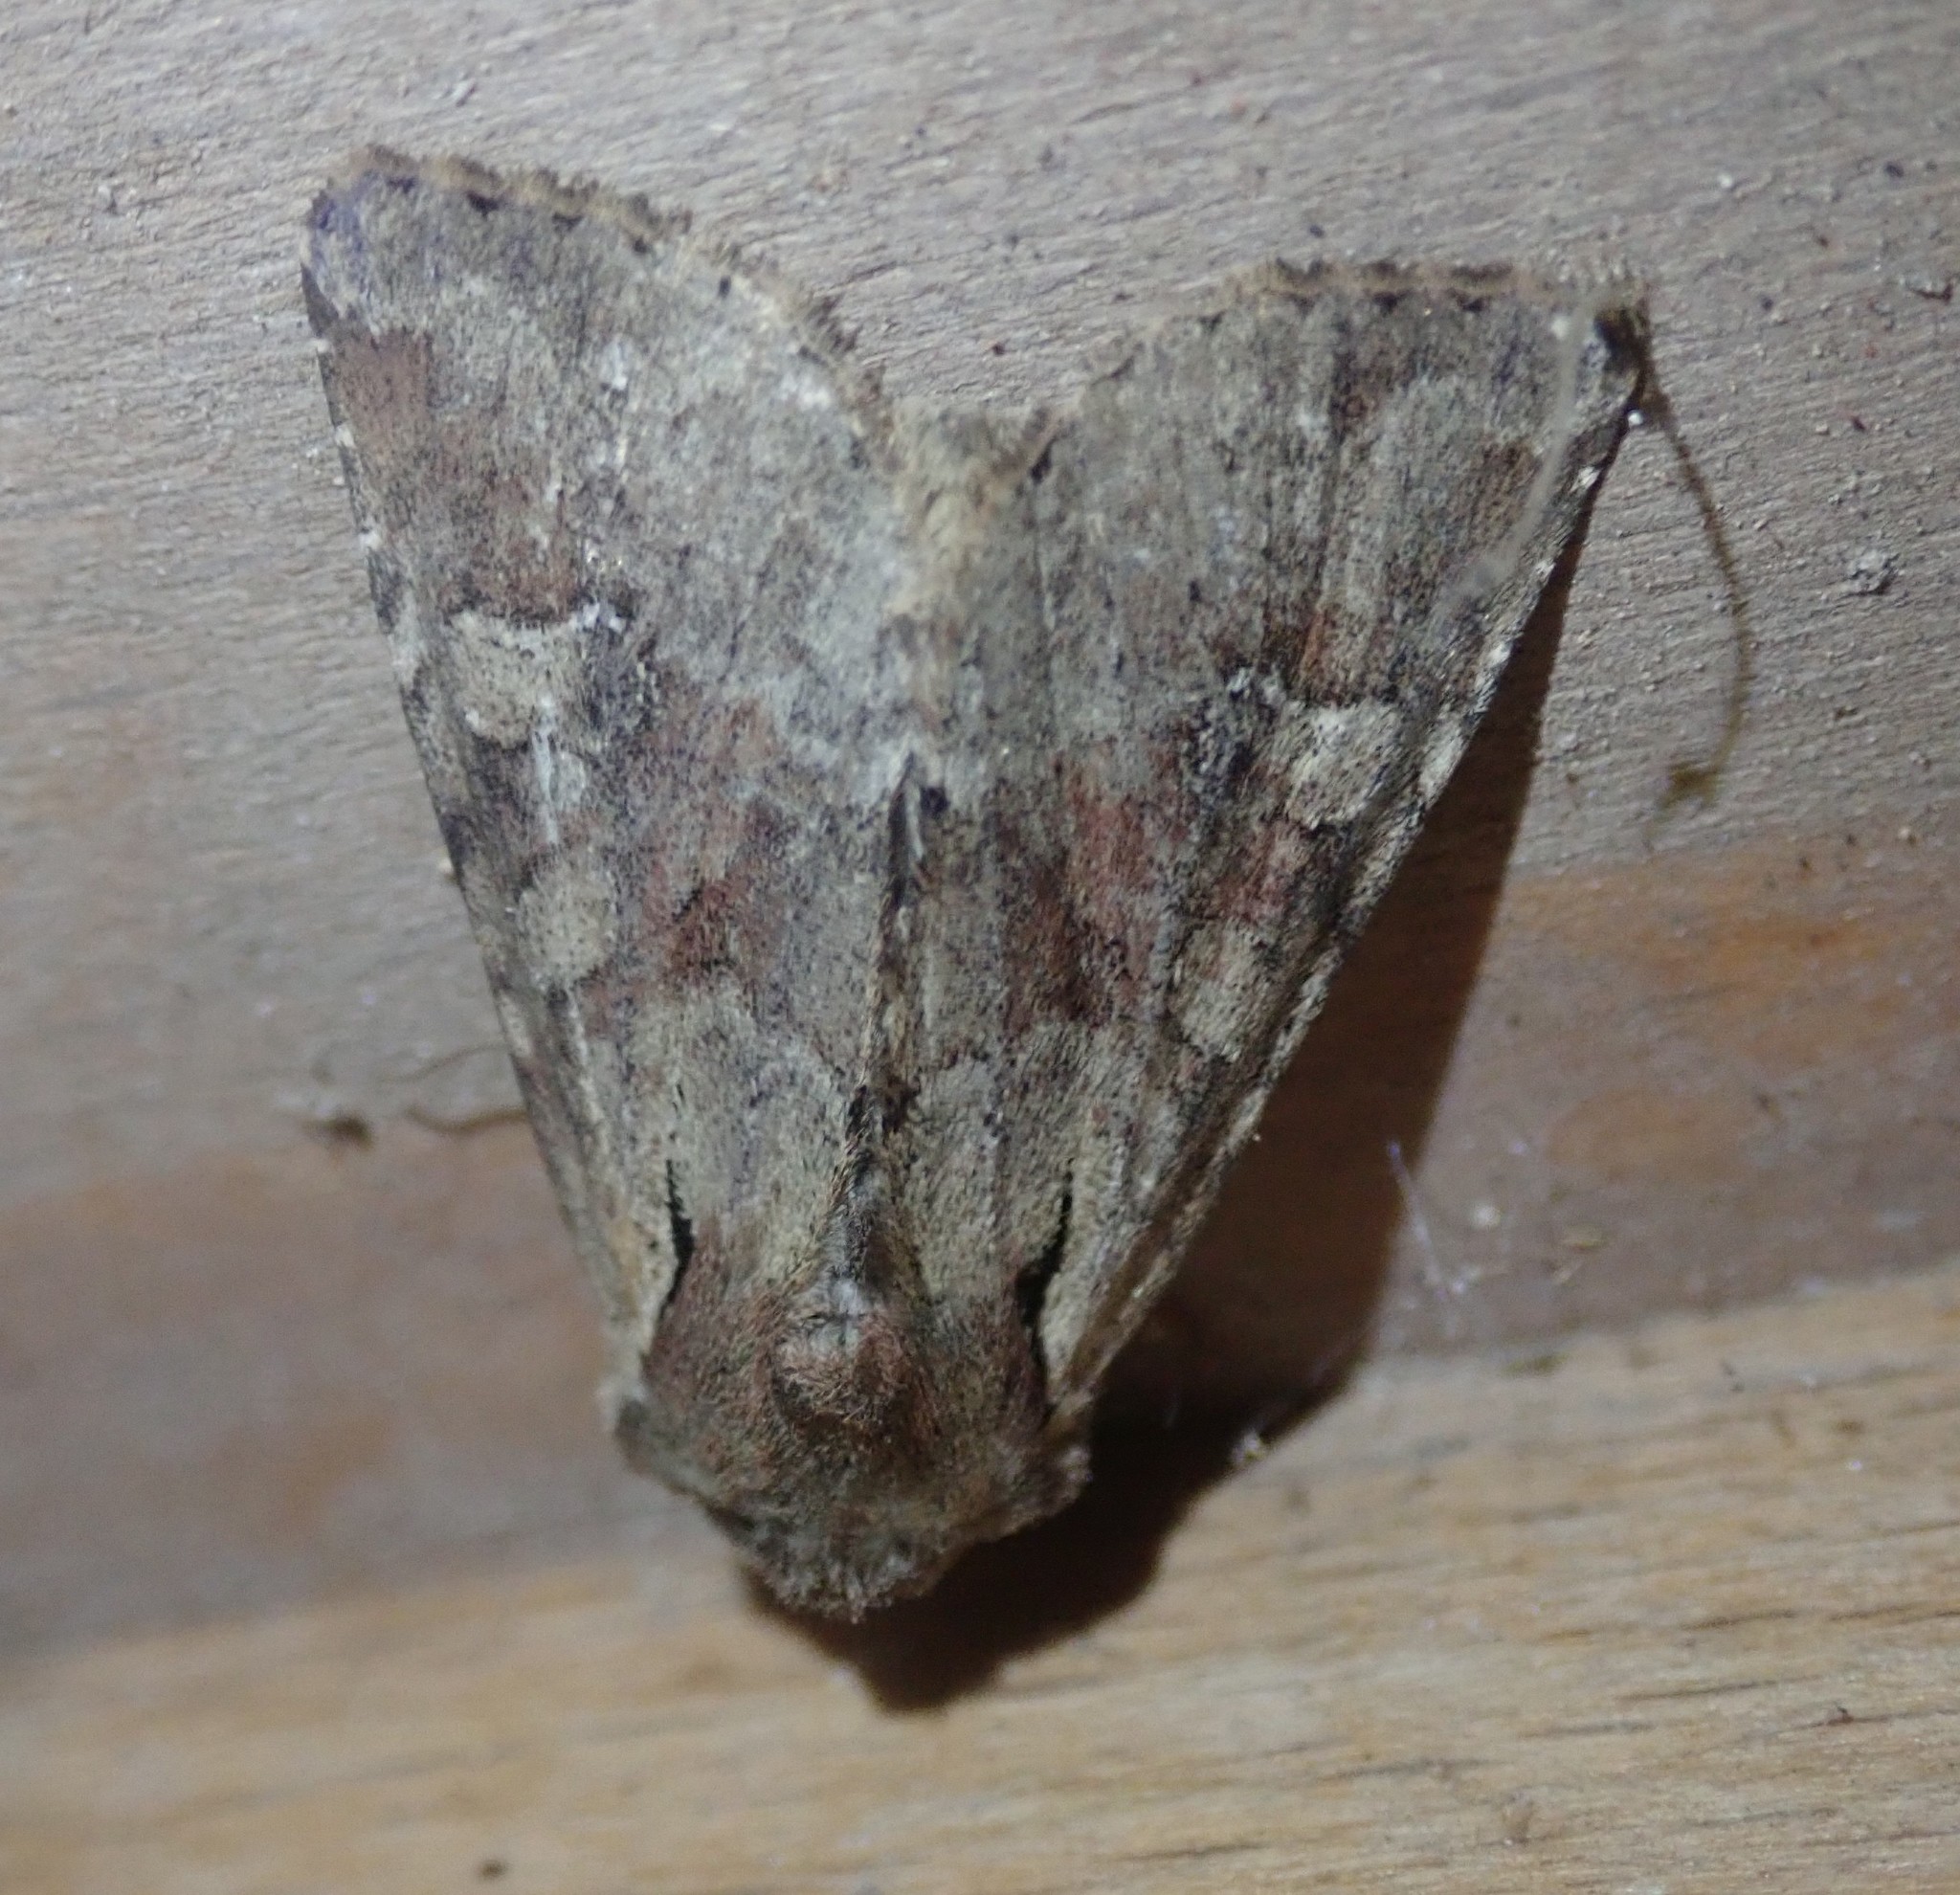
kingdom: Animalia
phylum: Arthropoda
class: Insecta
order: Lepidoptera
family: Noctuidae
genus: Apamea
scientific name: Apamea sordens
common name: Rustic shoulder-knot
